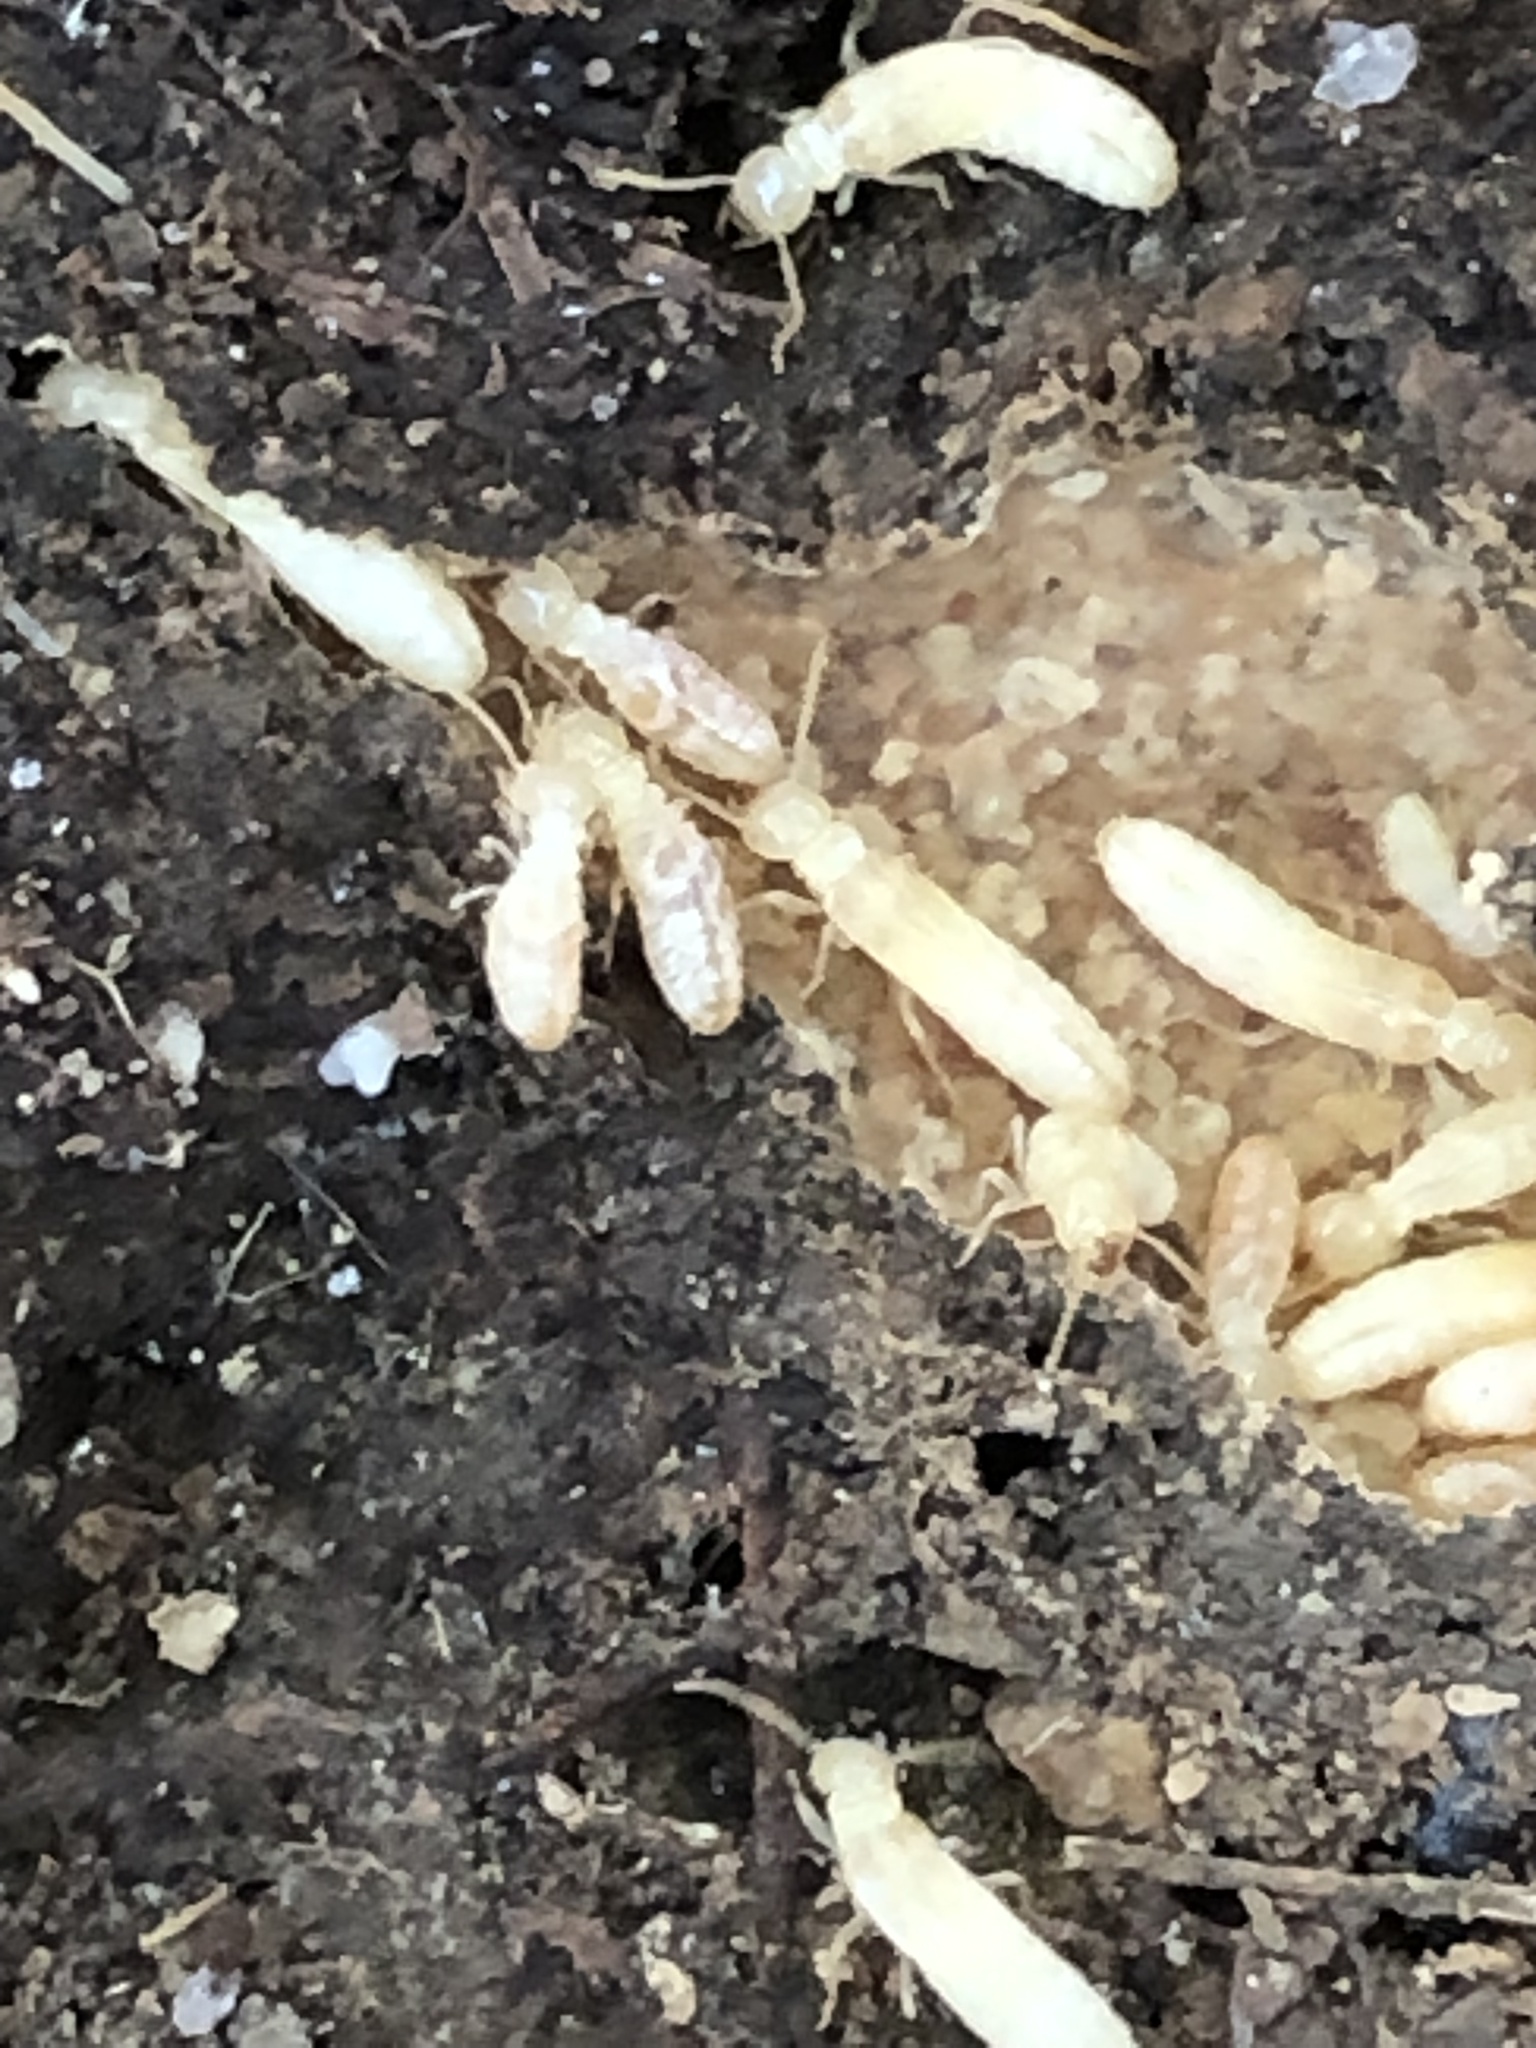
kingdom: Animalia
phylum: Arthropoda
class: Insecta
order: Blattodea
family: Rhinotermitidae
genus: Reticulitermes
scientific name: Reticulitermes flavipes
